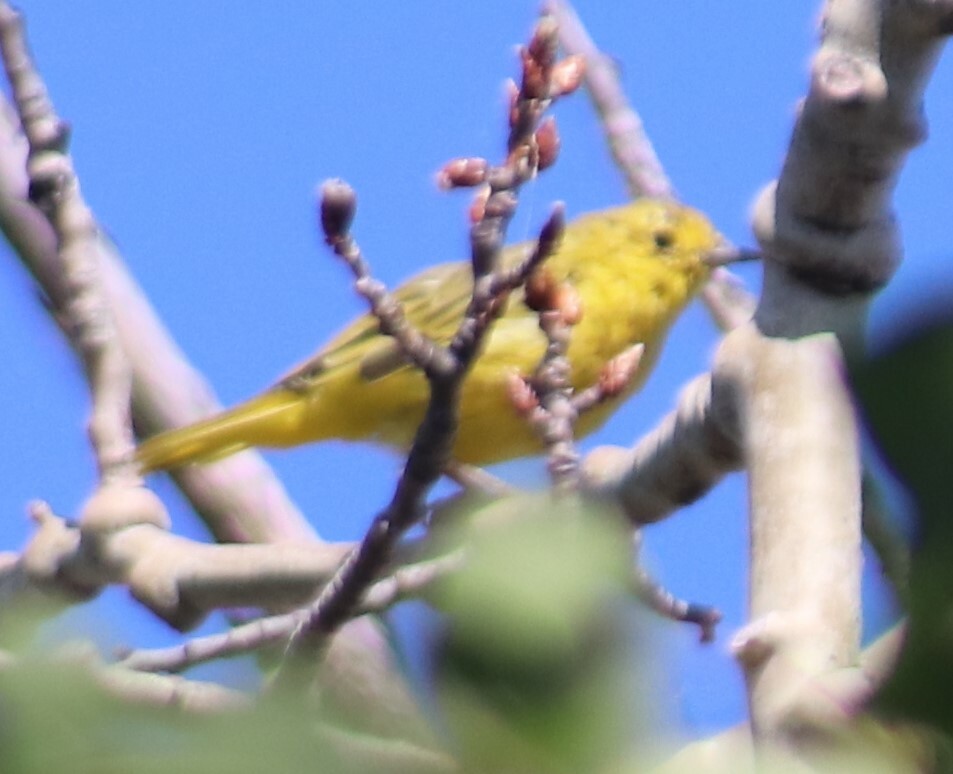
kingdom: Animalia
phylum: Chordata
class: Aves
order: Passeriformes
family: Parulidae
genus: Setophaga
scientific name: Setophaga petechia
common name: Yellow warbler
